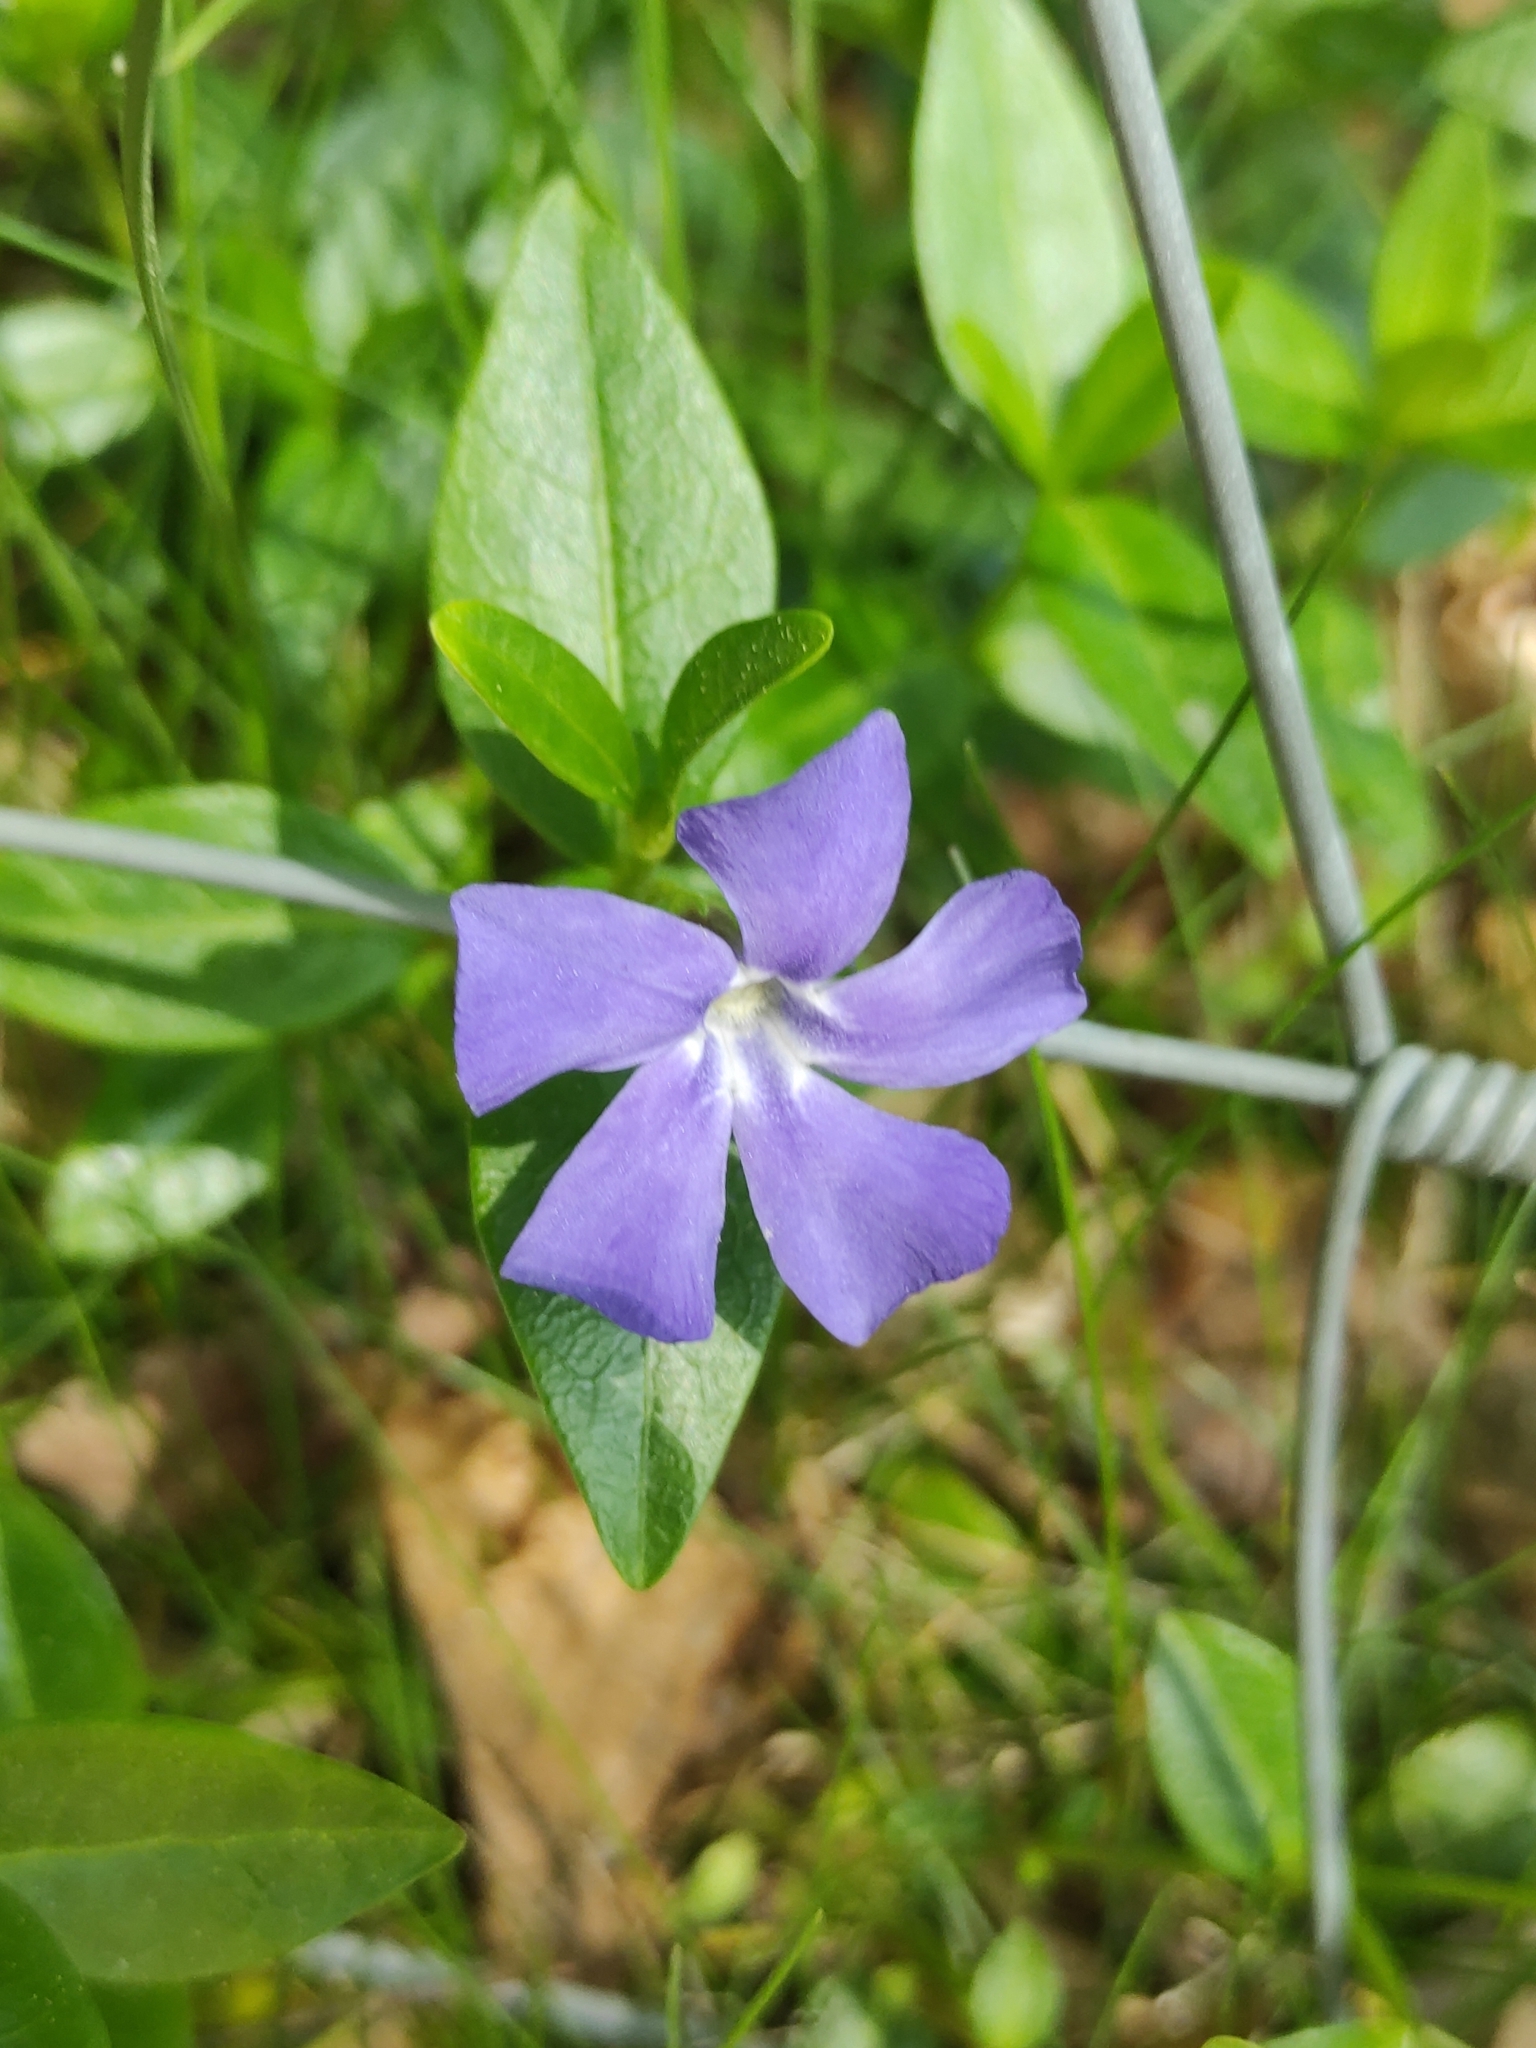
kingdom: Plantae
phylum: Tracheophyta
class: Magnoliopsida
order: Gentianales
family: Apocynaceae
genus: Vinca
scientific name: Vinca minor
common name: Lesser periwinkle
